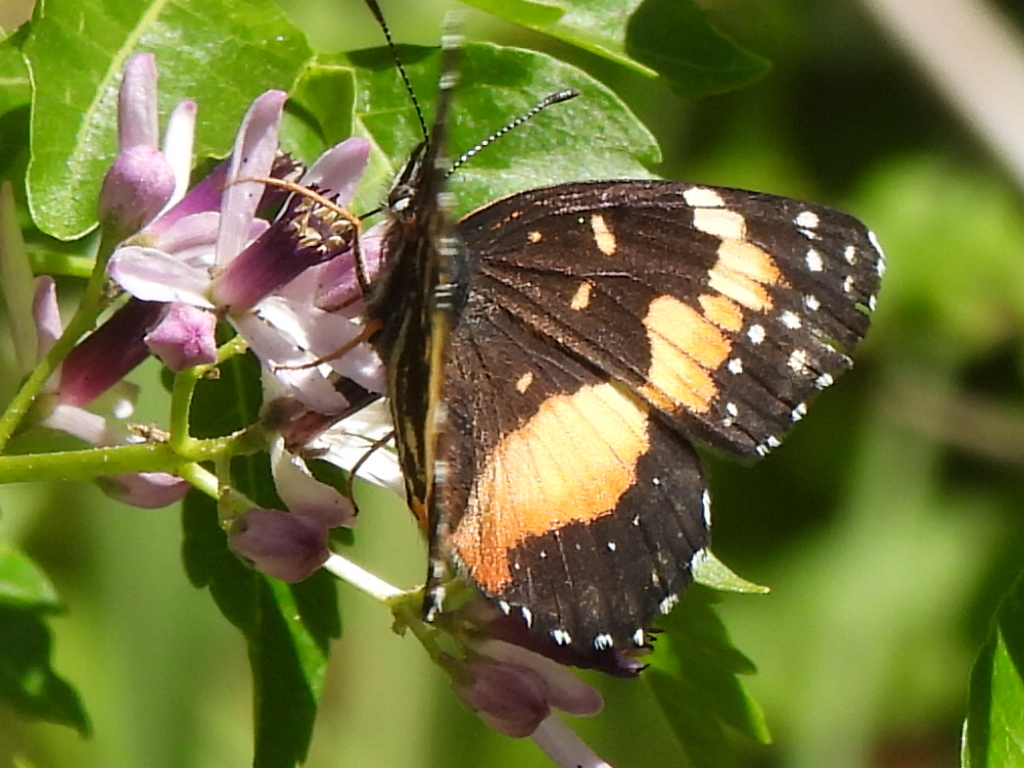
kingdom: Animalia
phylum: Arthropoda
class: Insecta
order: Lepidoptera
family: Nymphalidae
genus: Chlosyne
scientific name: Chlosyne lacinia
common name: Bordered patch
